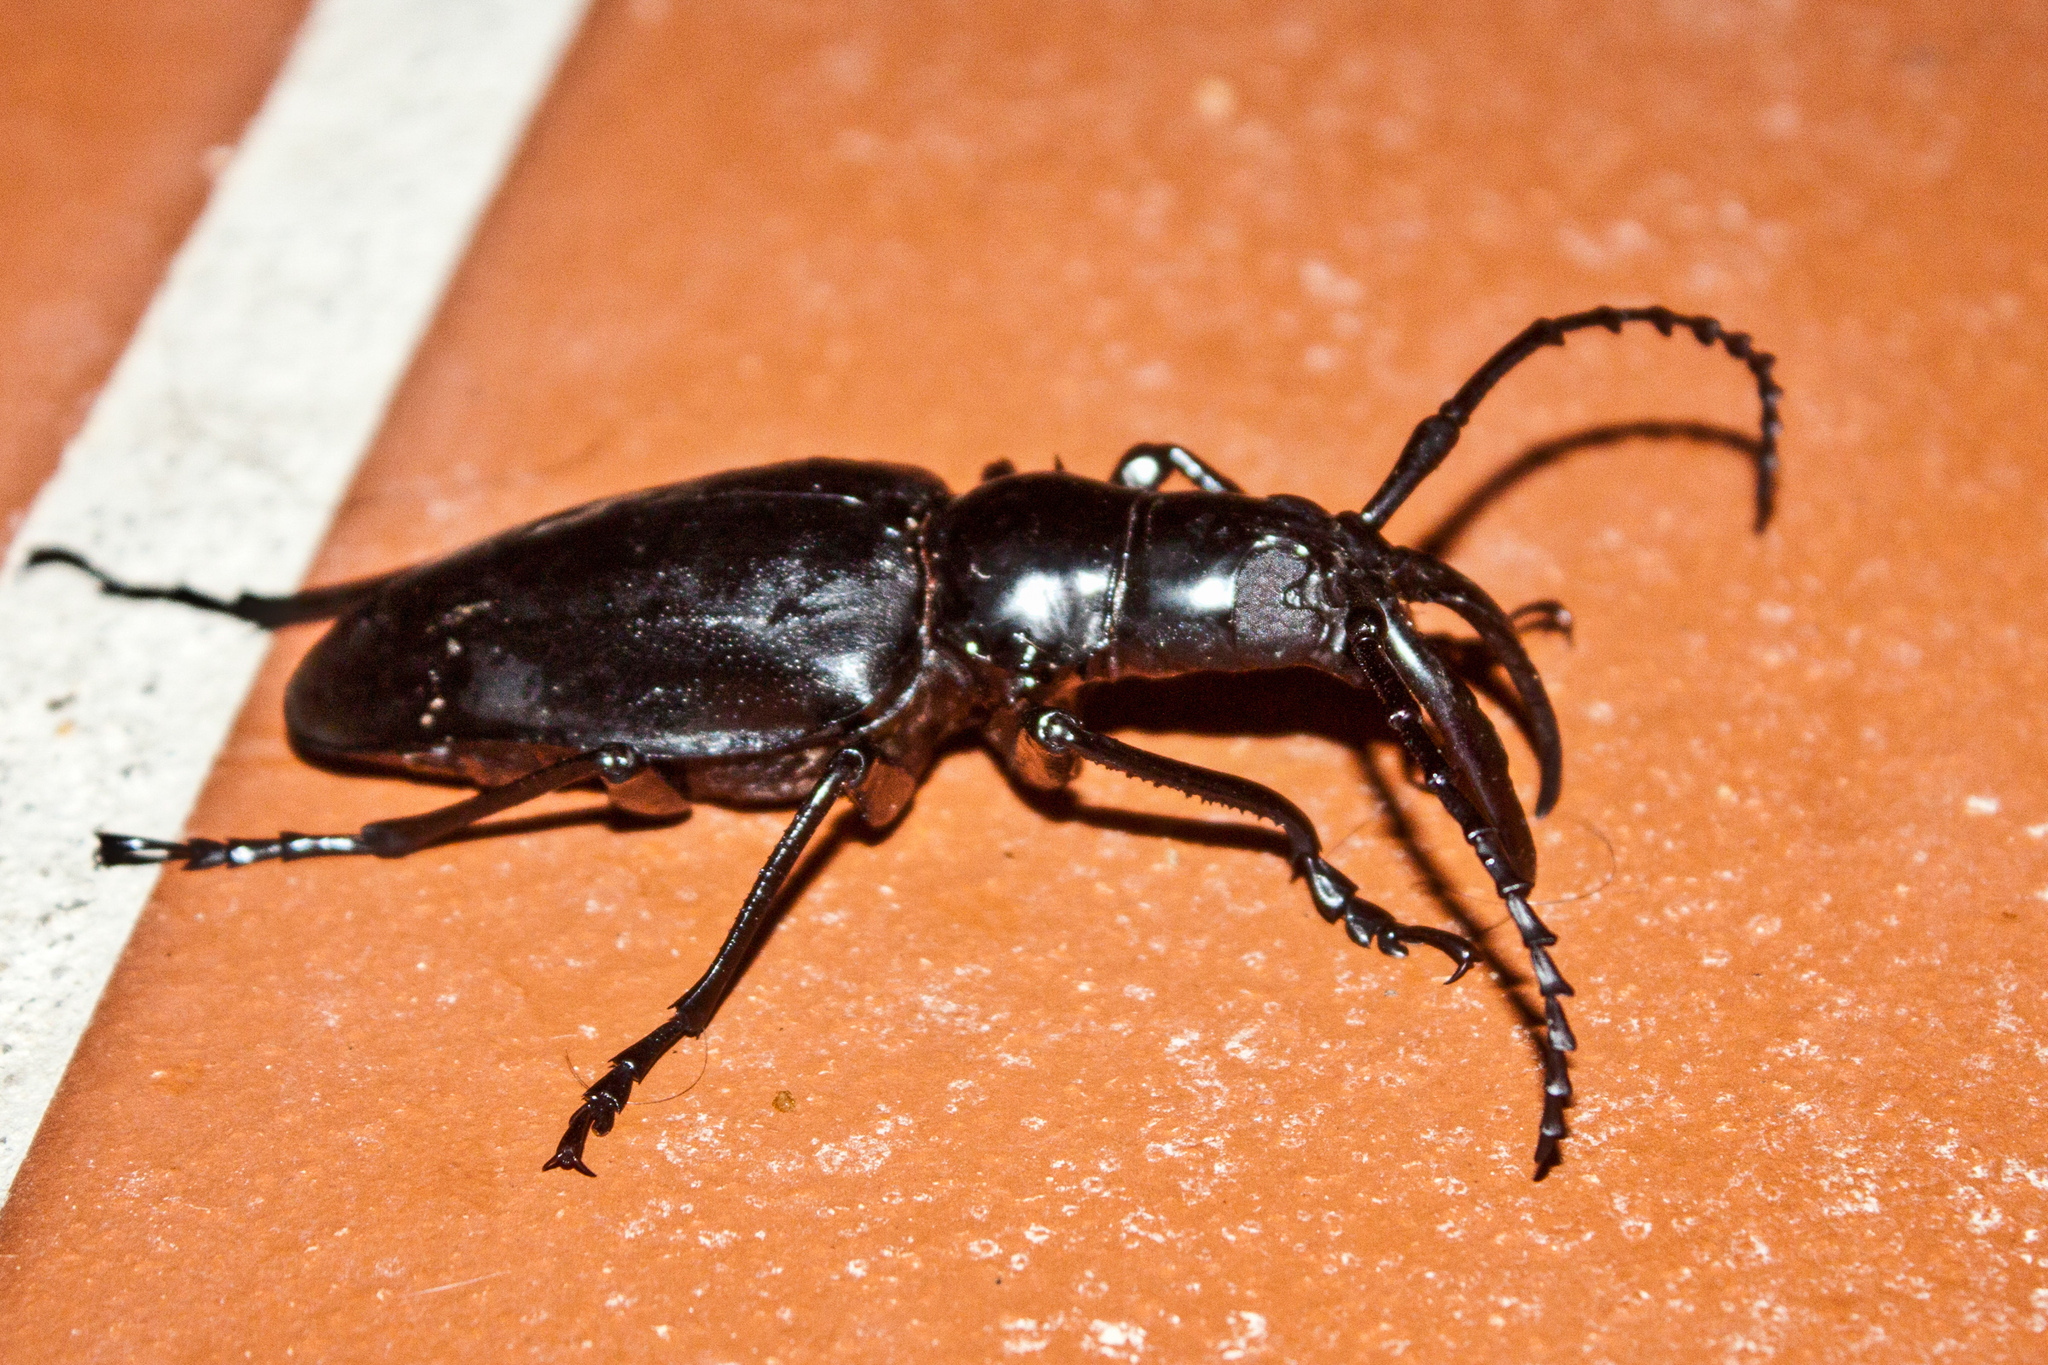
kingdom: Animalia
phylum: Arthropoda
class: Insecta
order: Coleoptera
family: Cerambycidae
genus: Dorysthenes
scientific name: Dorysthenes walkeri
